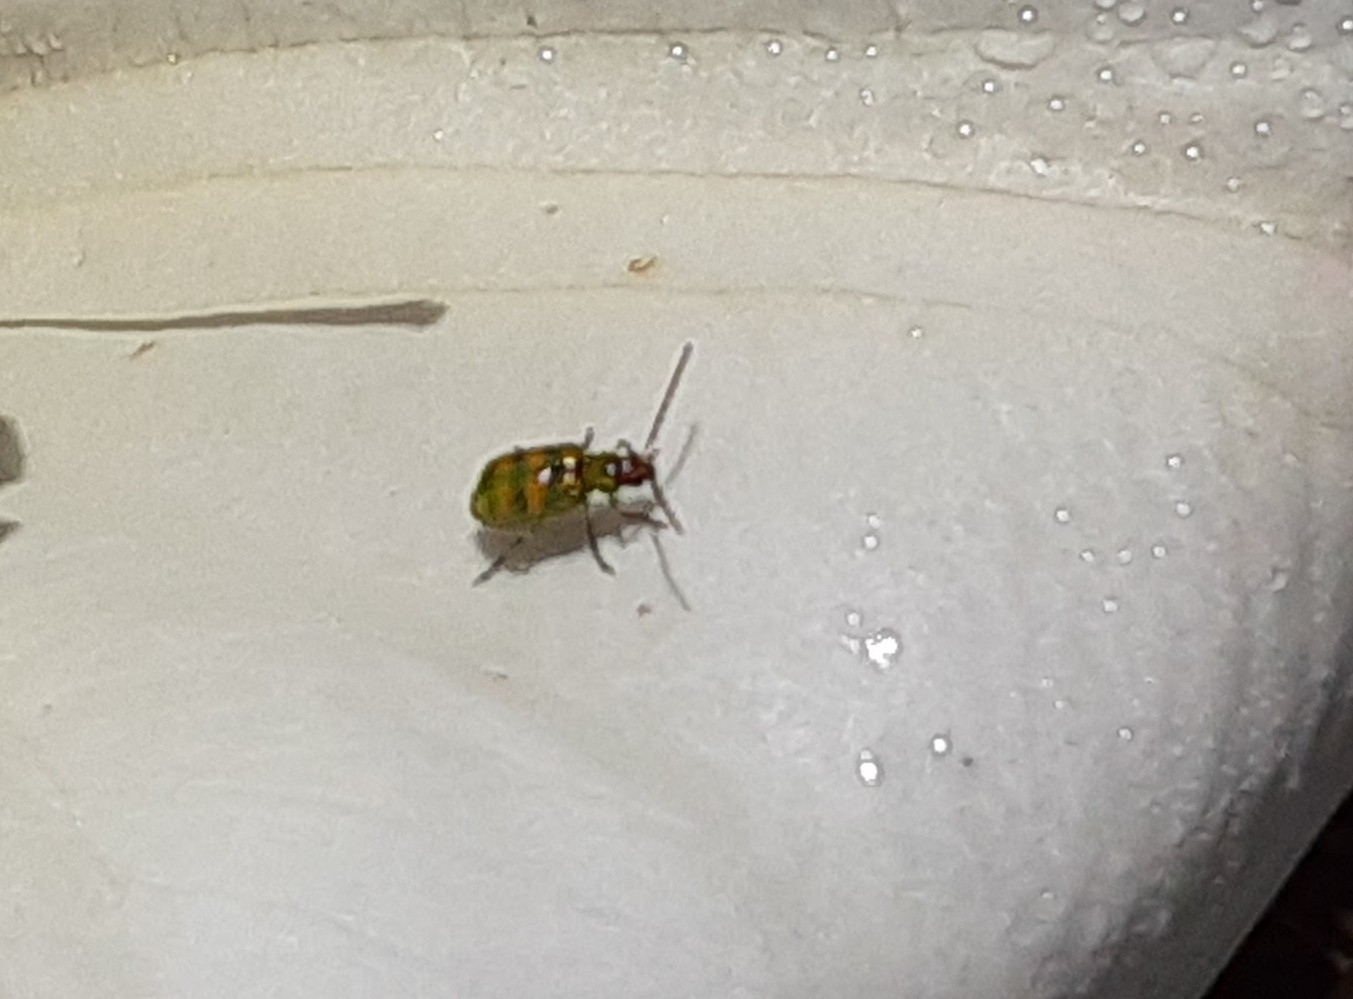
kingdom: Animalia
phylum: Arthropoda
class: Insecta
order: Coleoptera
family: Chrysomelidae
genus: Diabrotica
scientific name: Diabrotica balteata
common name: Leaf beetle
